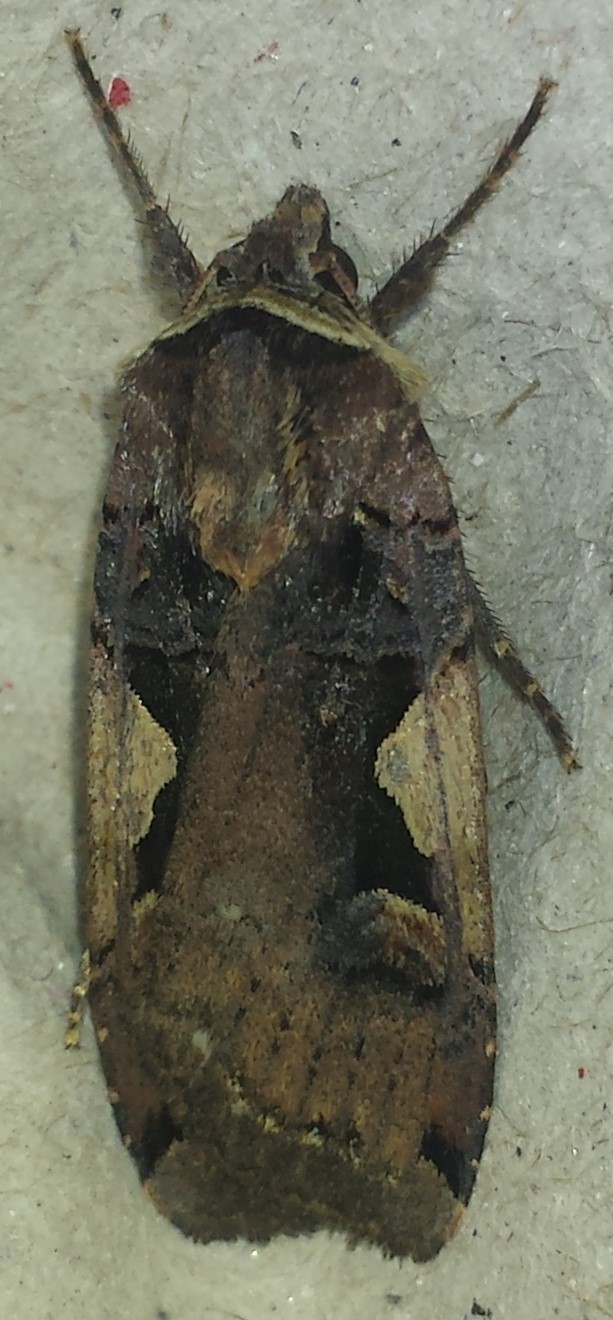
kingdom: Animalia
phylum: Arthropoda
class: Insecta
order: Lepidoptera
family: Noctuidae
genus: Xestia
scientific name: Xestia
